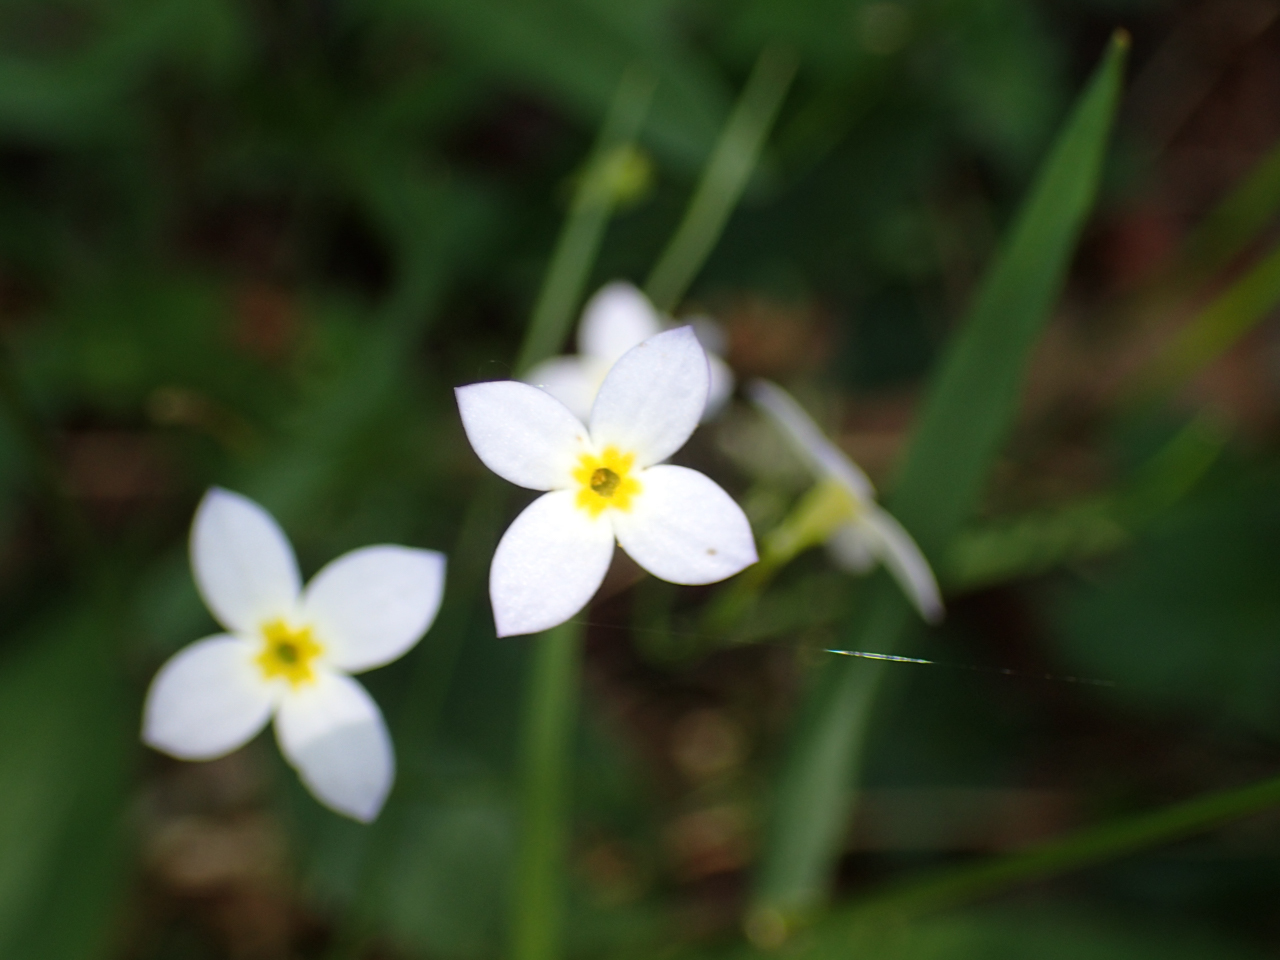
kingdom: Plantae
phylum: Tracheophyta
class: Magnoliopsida
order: Gentianales
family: Rubiaceae
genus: Houstonia
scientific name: Houstonia caerulea
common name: Bluets
